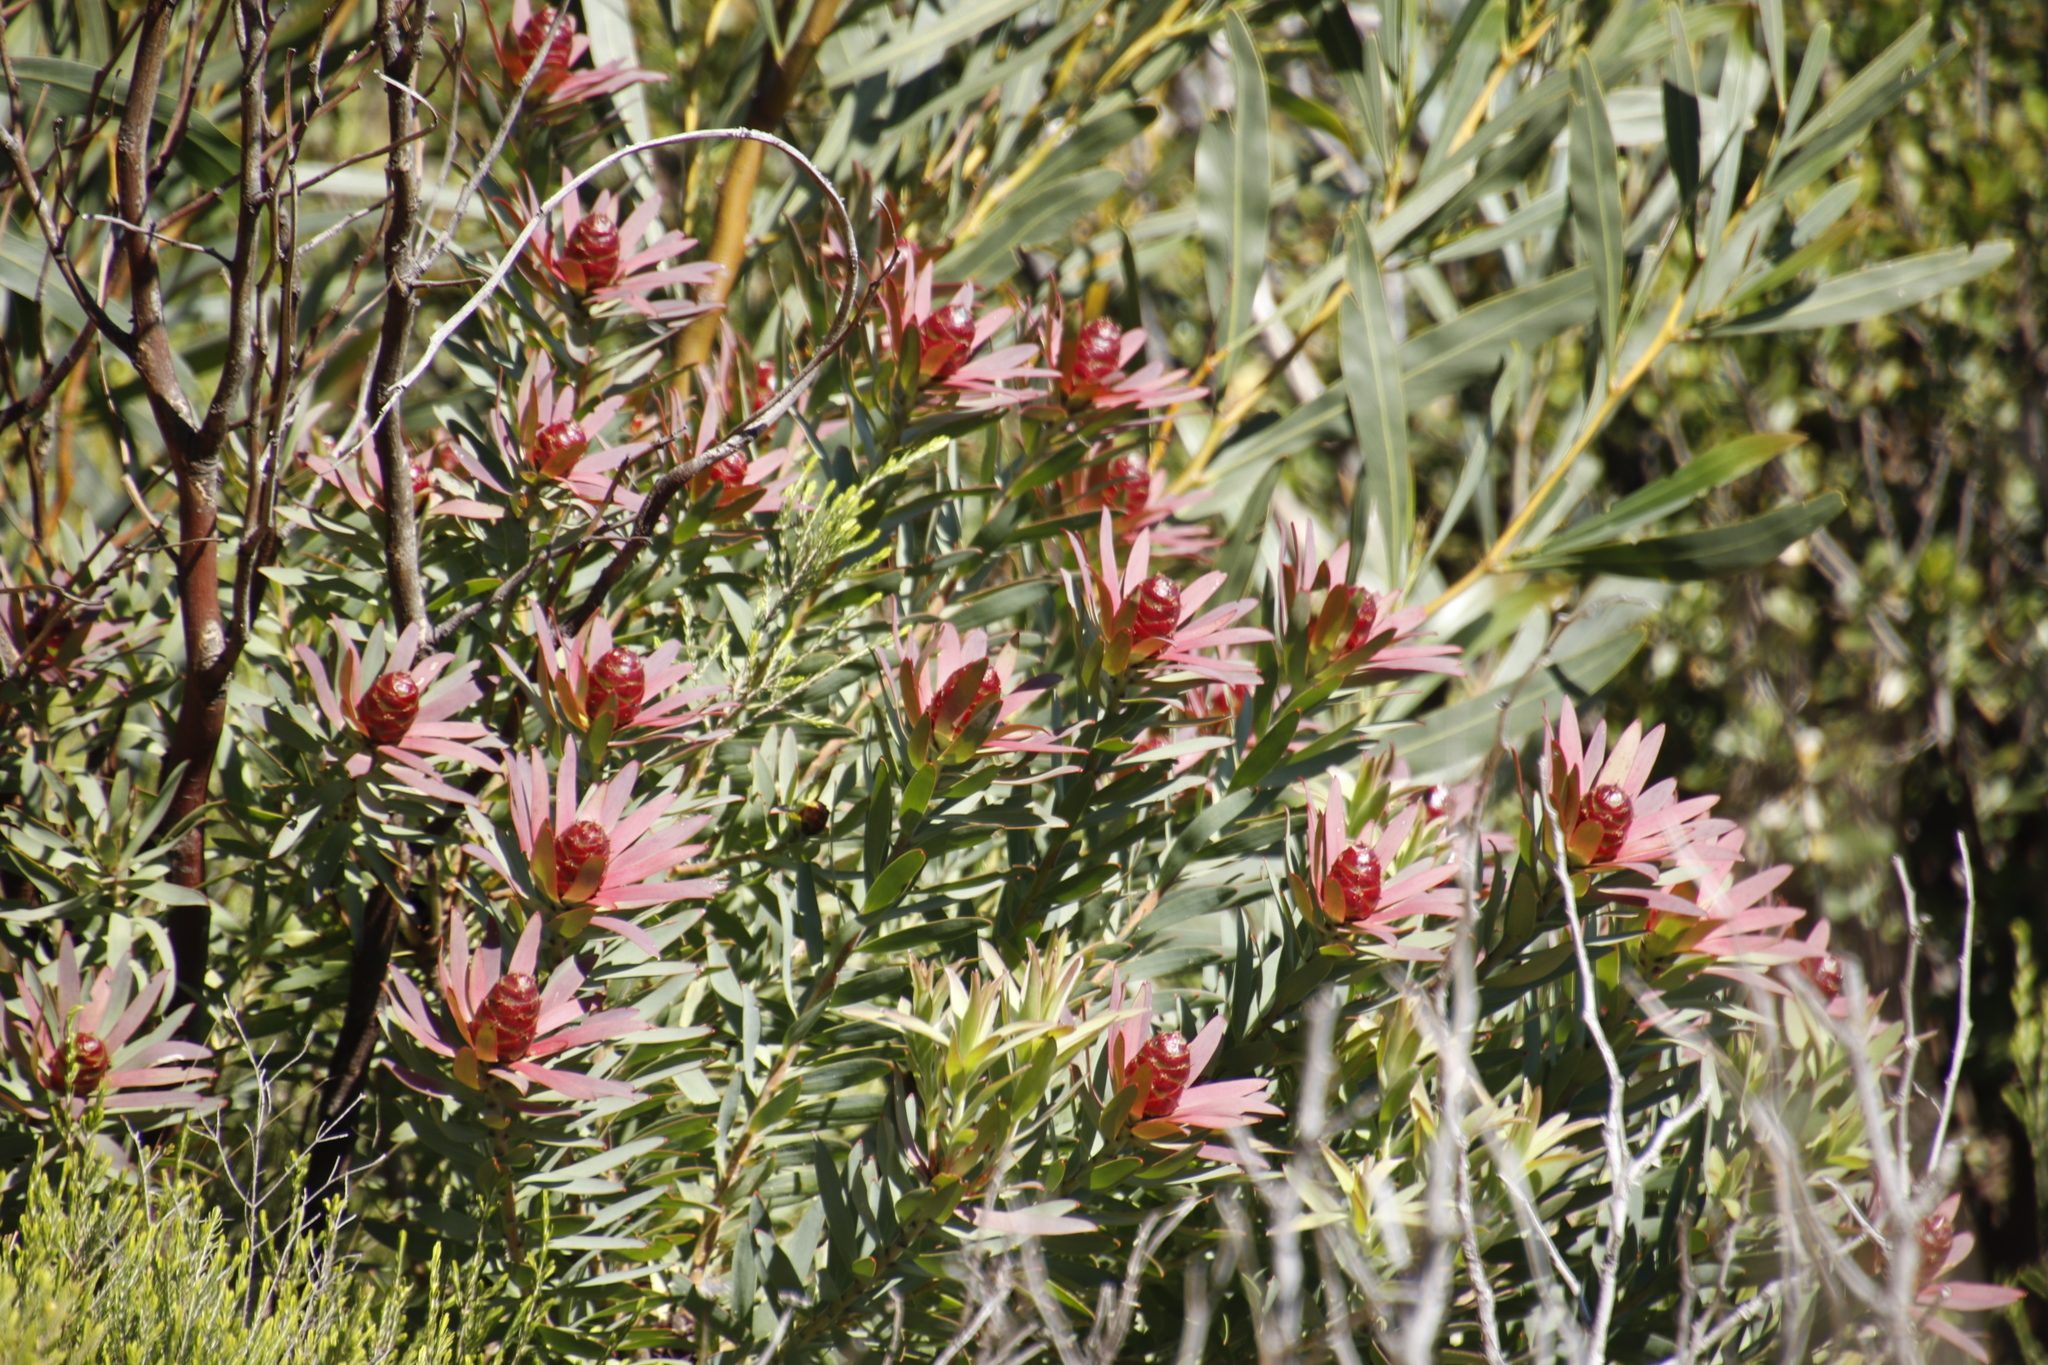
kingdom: Plantae
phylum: Tracheophyta
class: Magnoliopsida
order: Proteales
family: Proteaceae
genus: Leucadendron
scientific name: Leucadendron sessile
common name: Western sunbush
